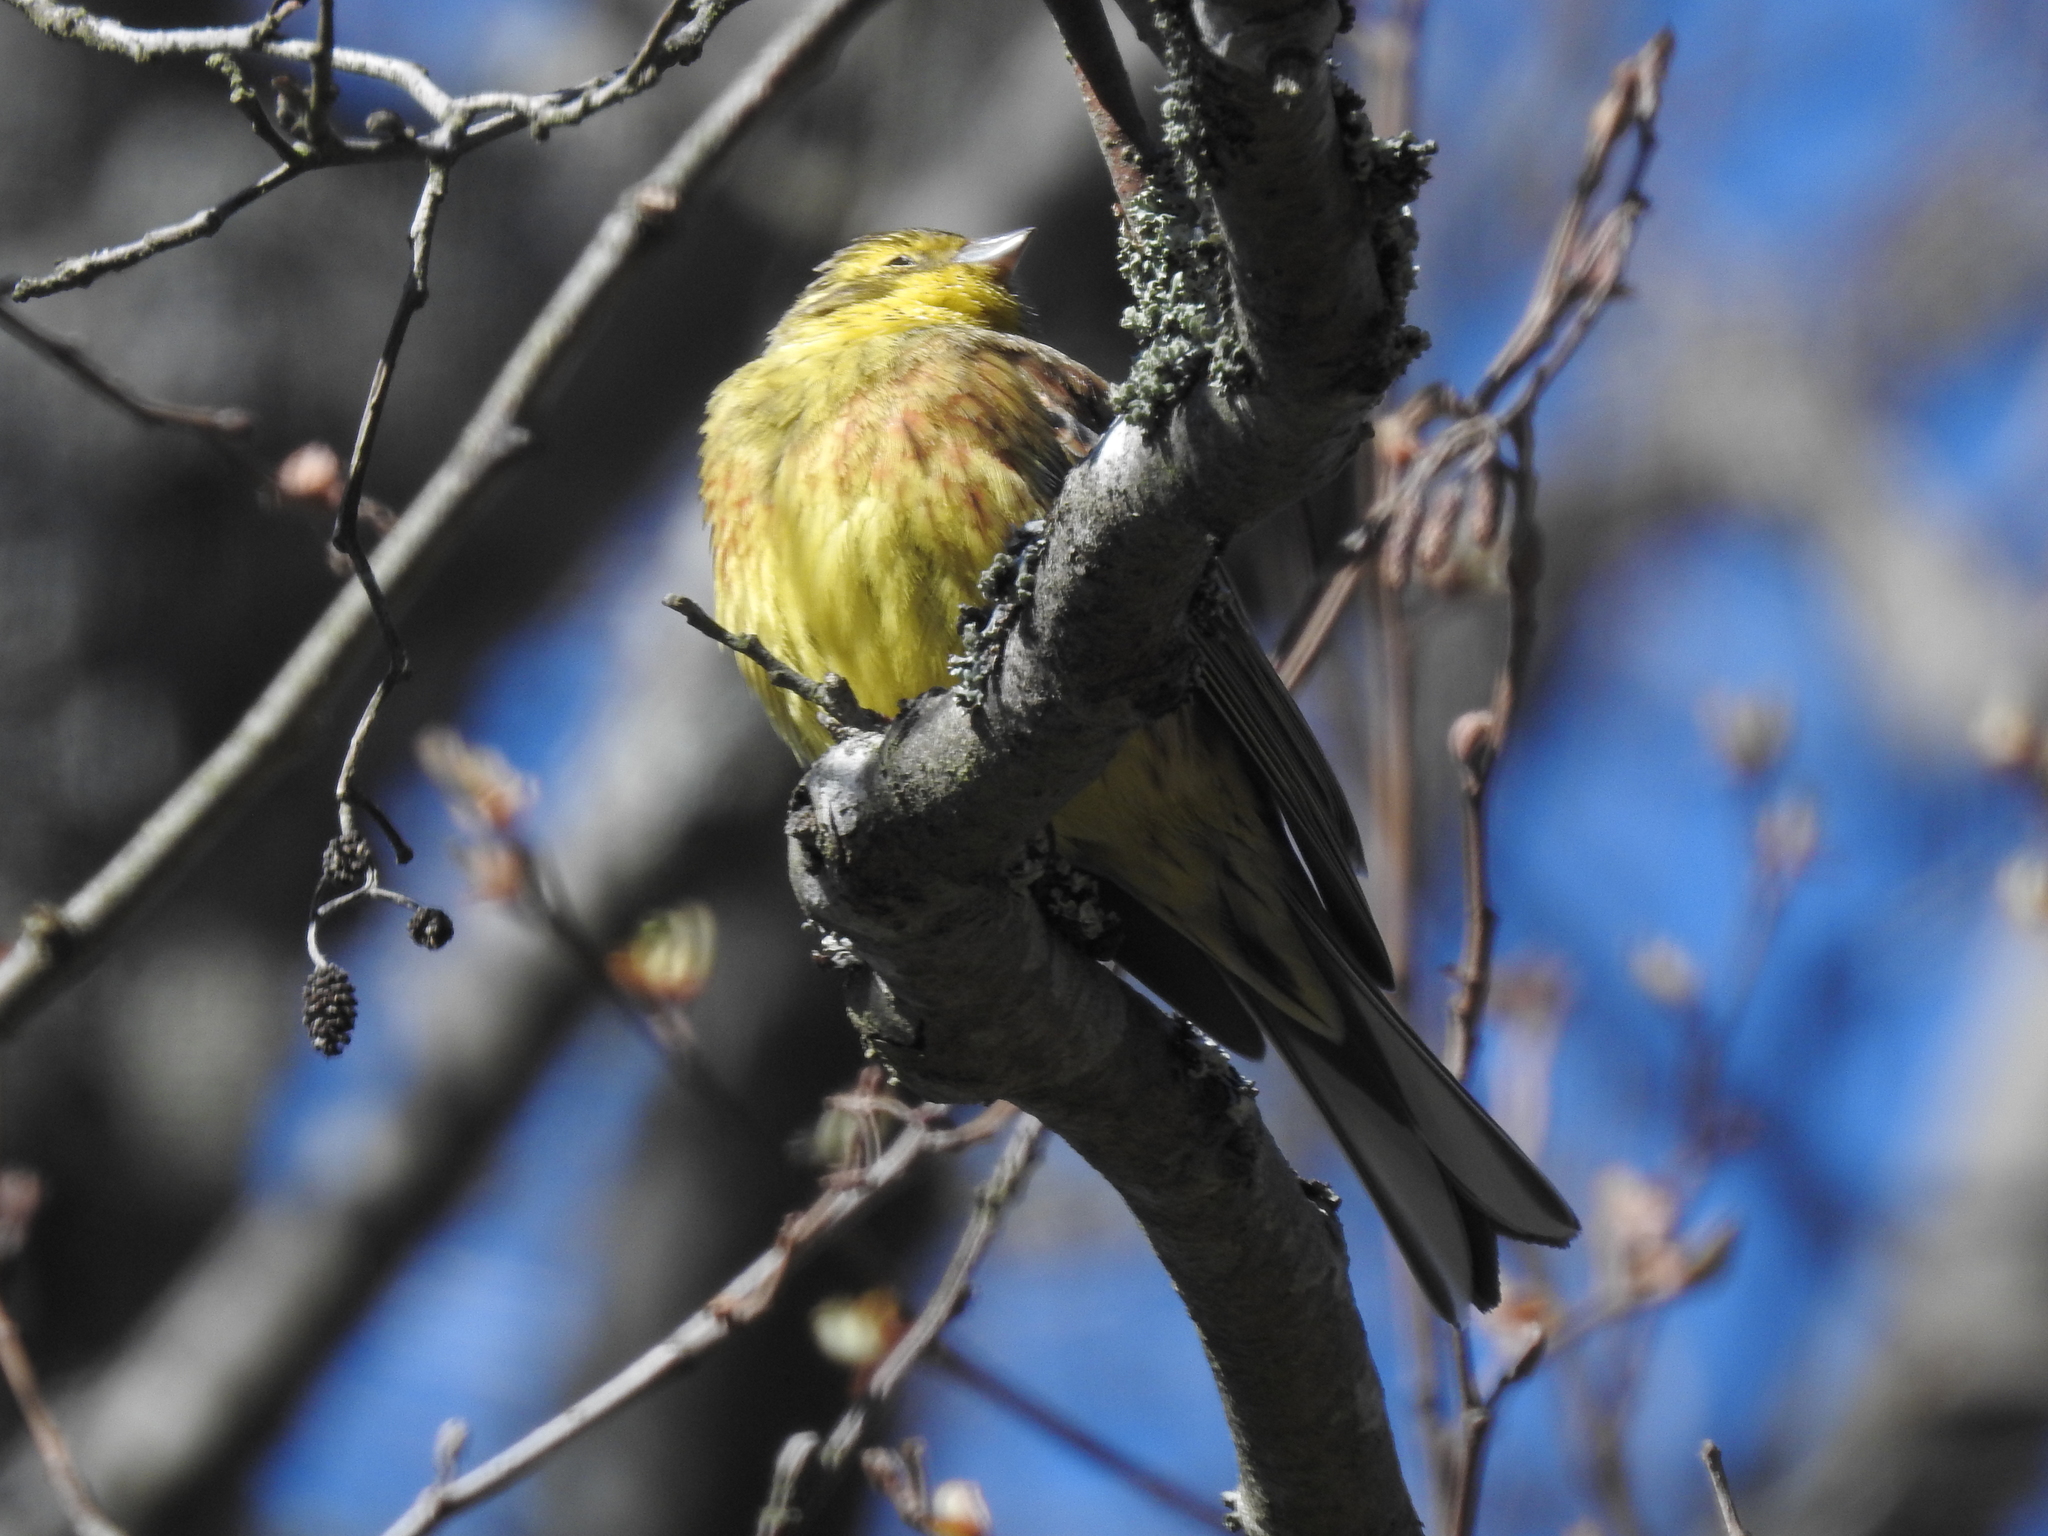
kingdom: Animalia
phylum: Chordata
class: Aves
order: Passeriformes
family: Emberizidae
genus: Emberiza
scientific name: Emberiza citrinella
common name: Yellowhammer
